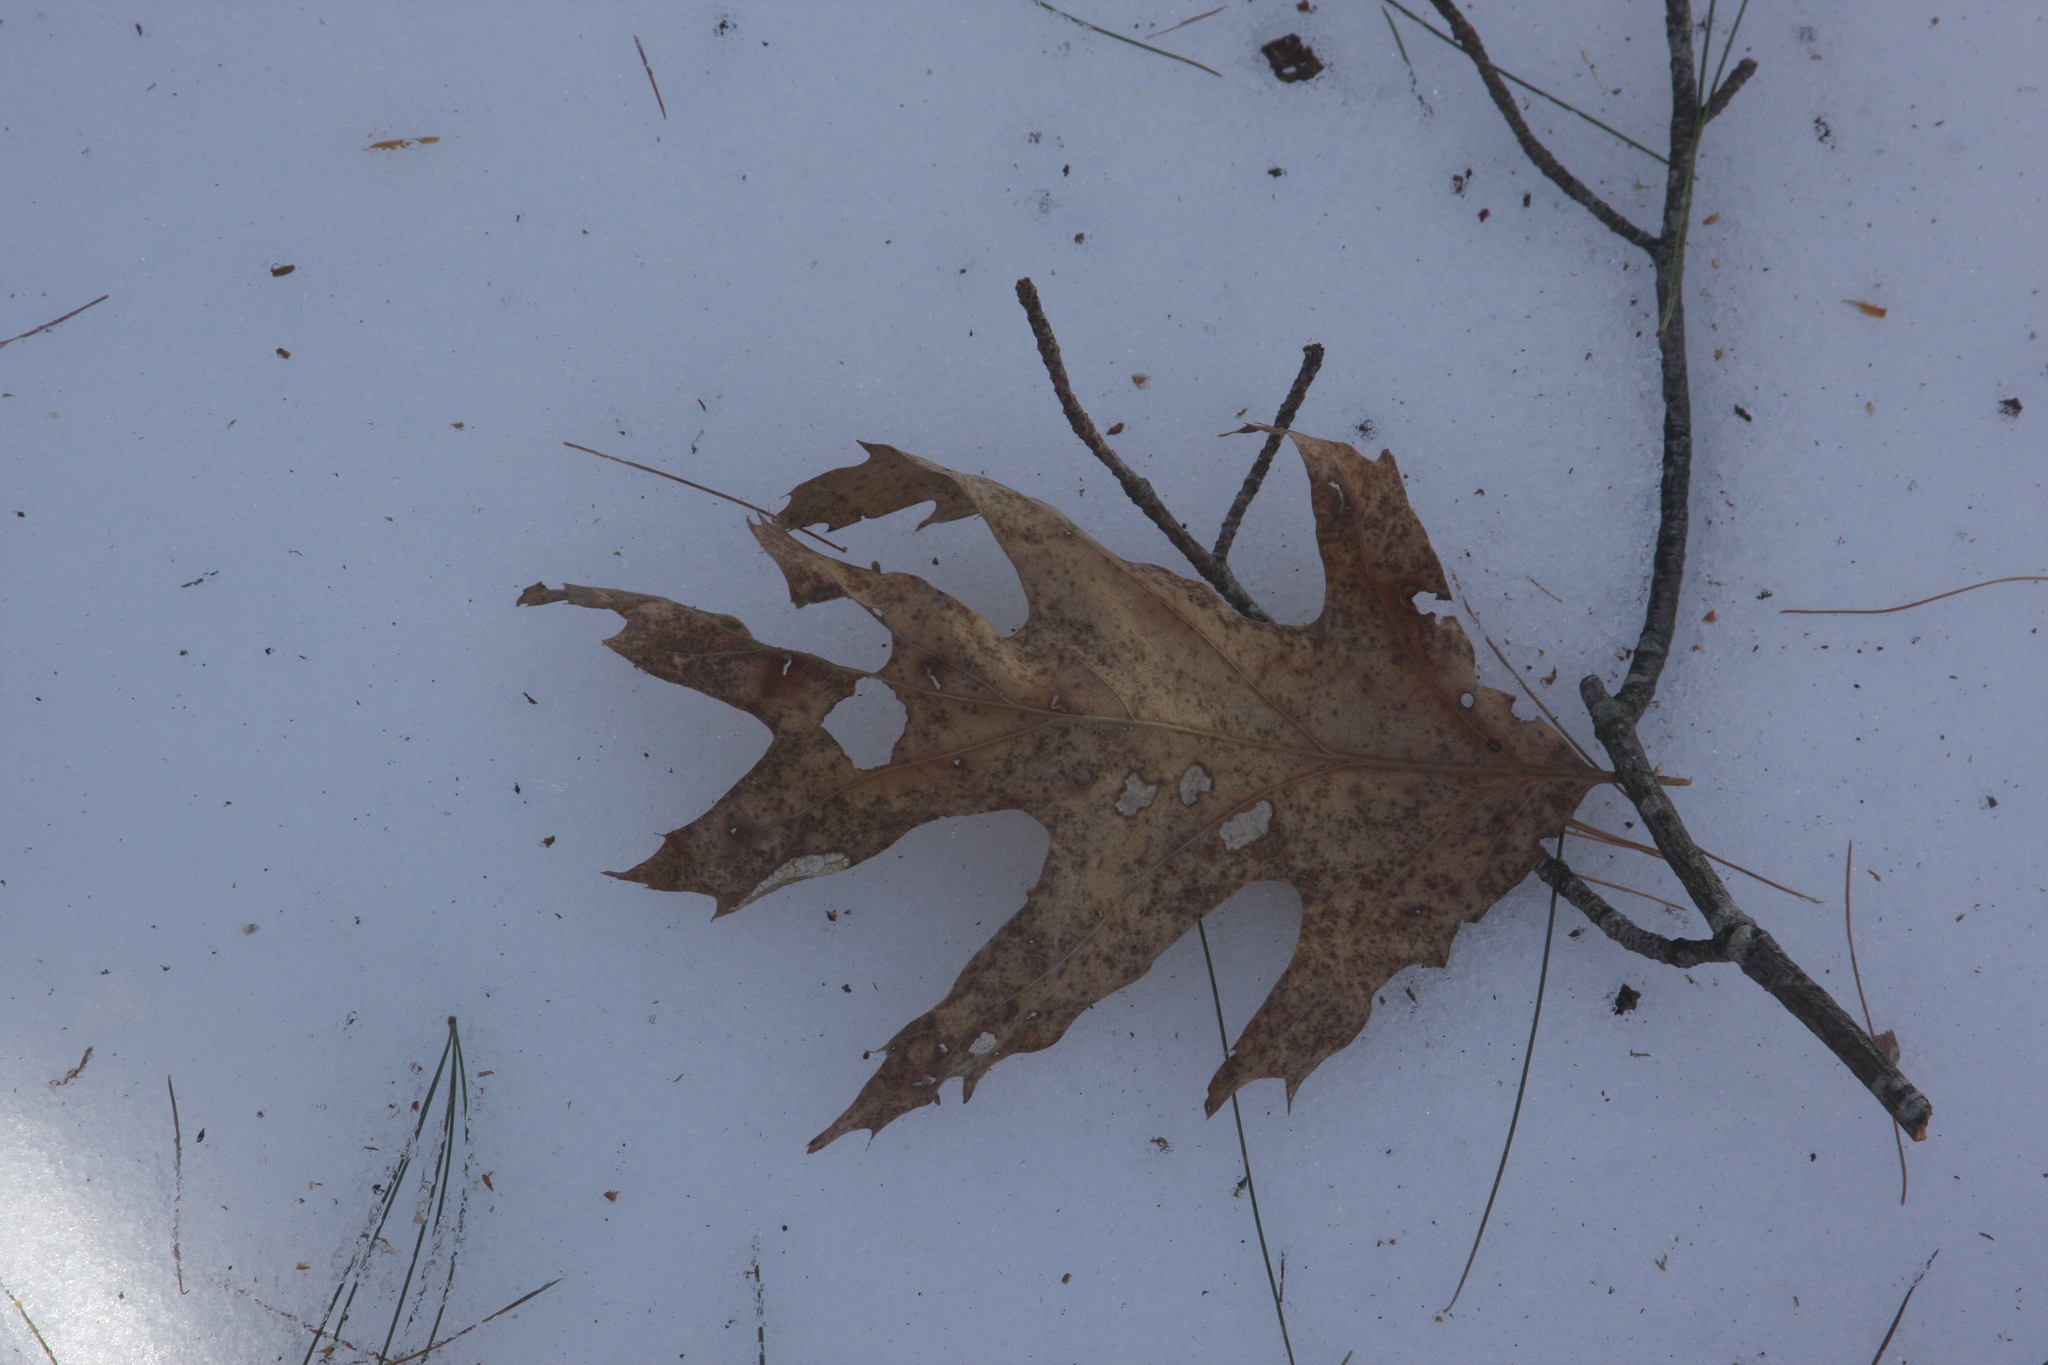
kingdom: Plantae
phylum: Tracheophyta
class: Magnoliopsida
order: Fagales
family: Fagaceae
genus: Quercus
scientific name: Quercus rubra
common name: Red oak
